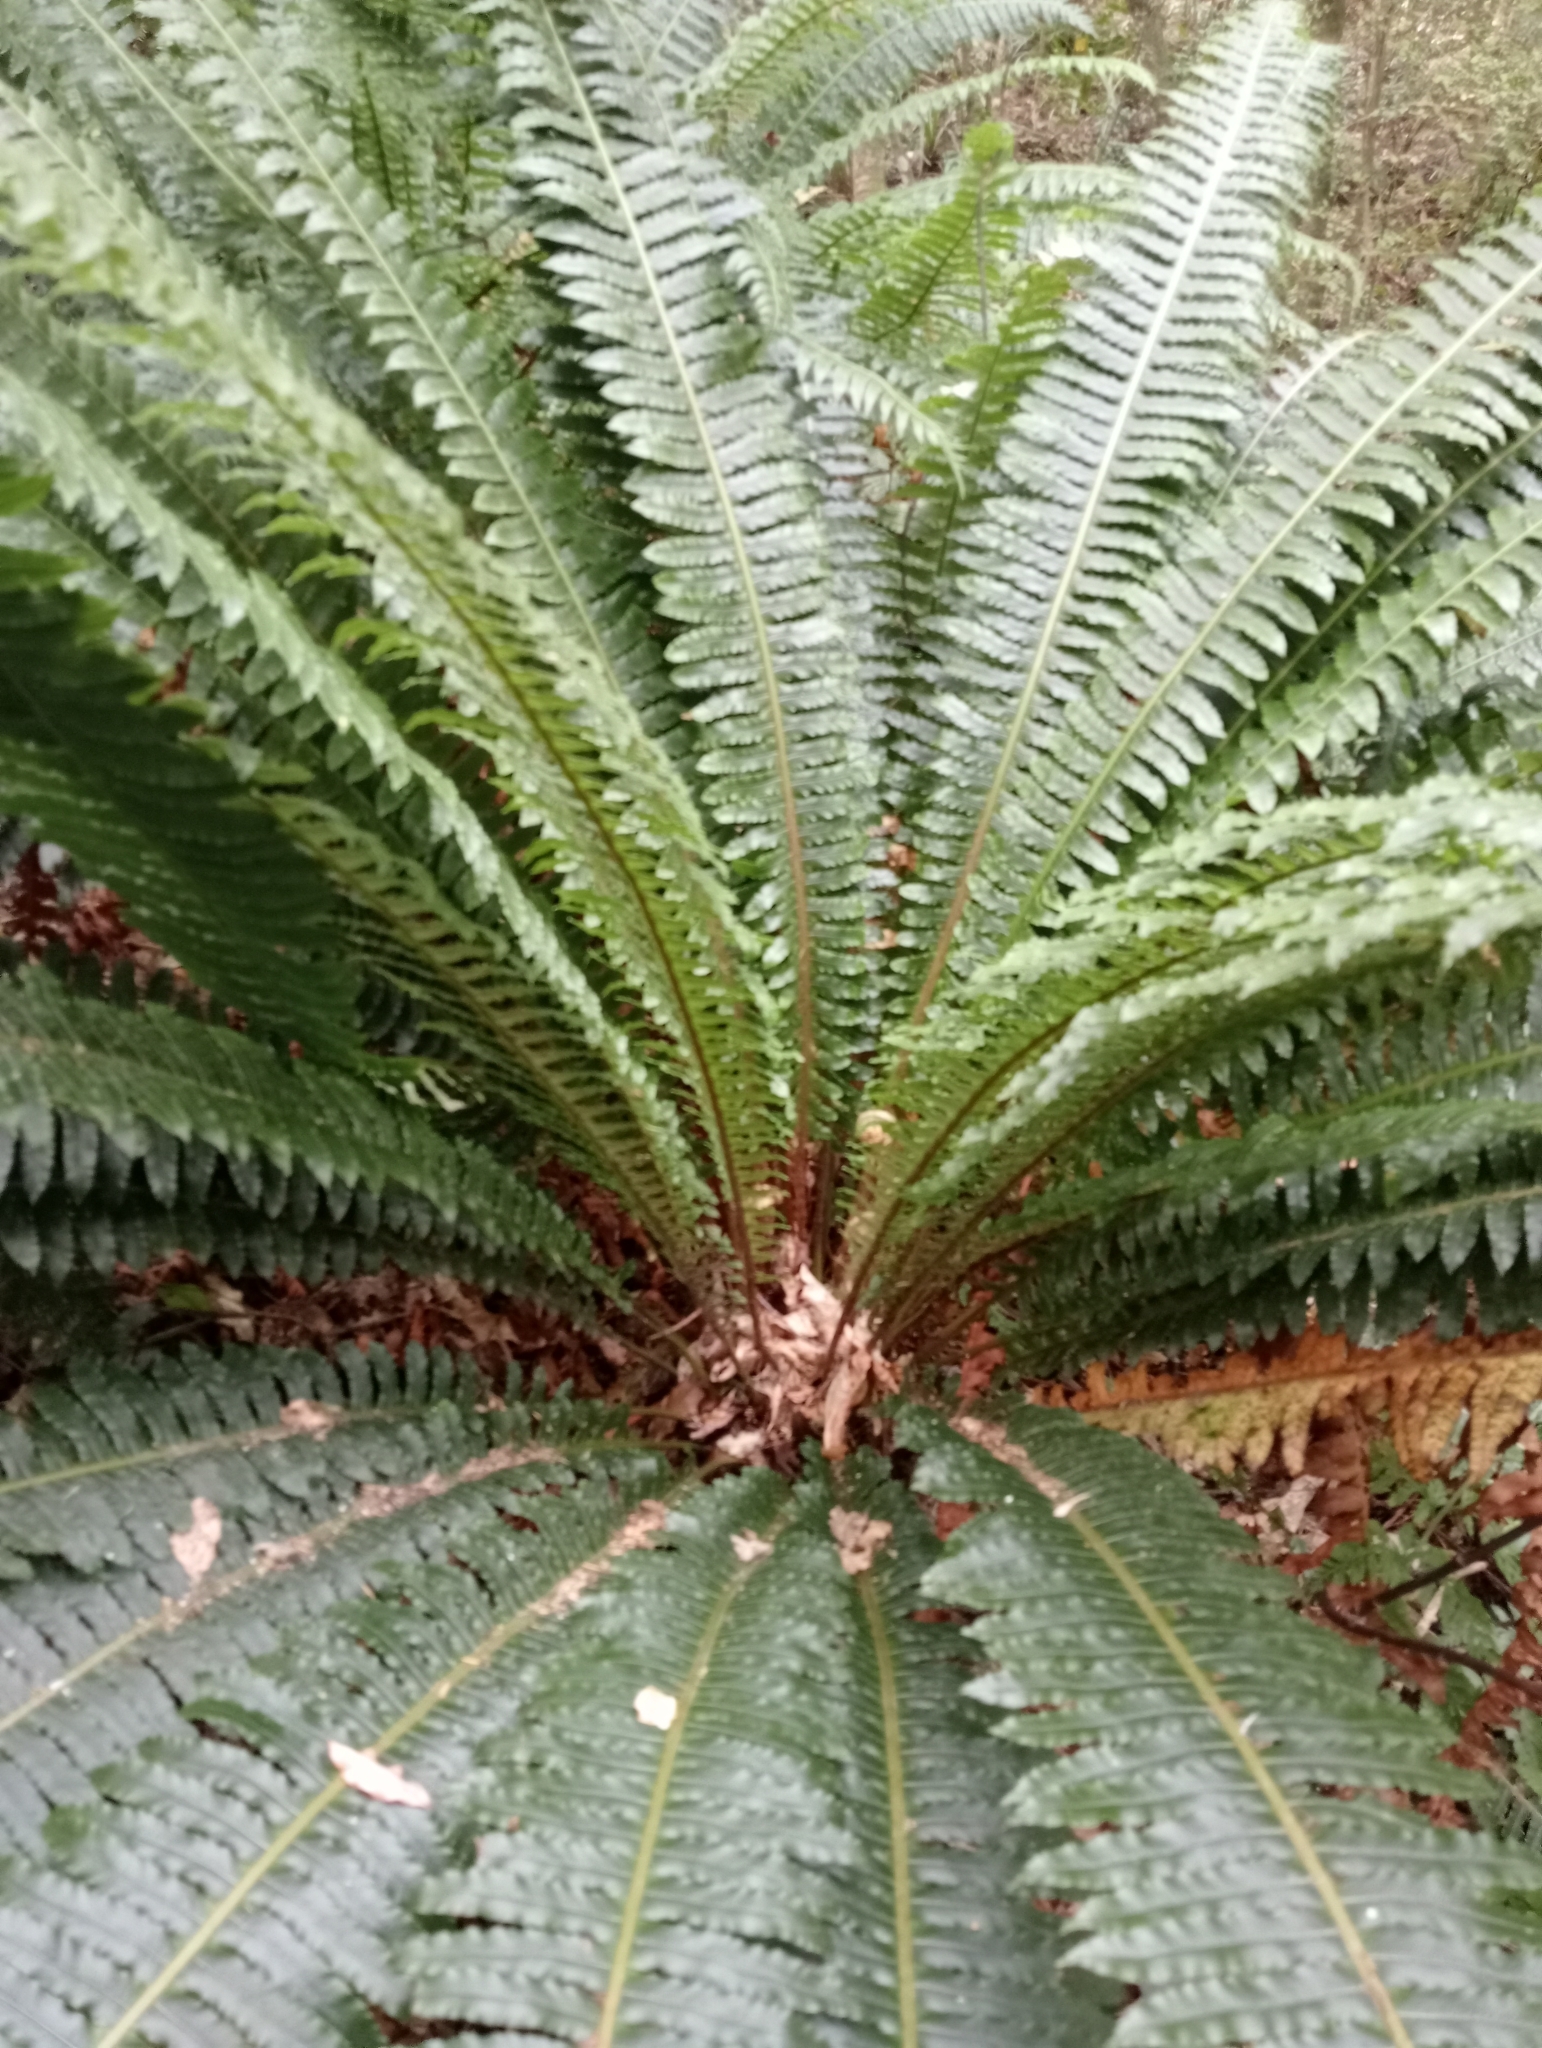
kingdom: Plantae
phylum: Tracheophyta
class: Polypodiopsida
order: Polypodiales
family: Blechnaceae
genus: Lomaria
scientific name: Lomaria discolor
